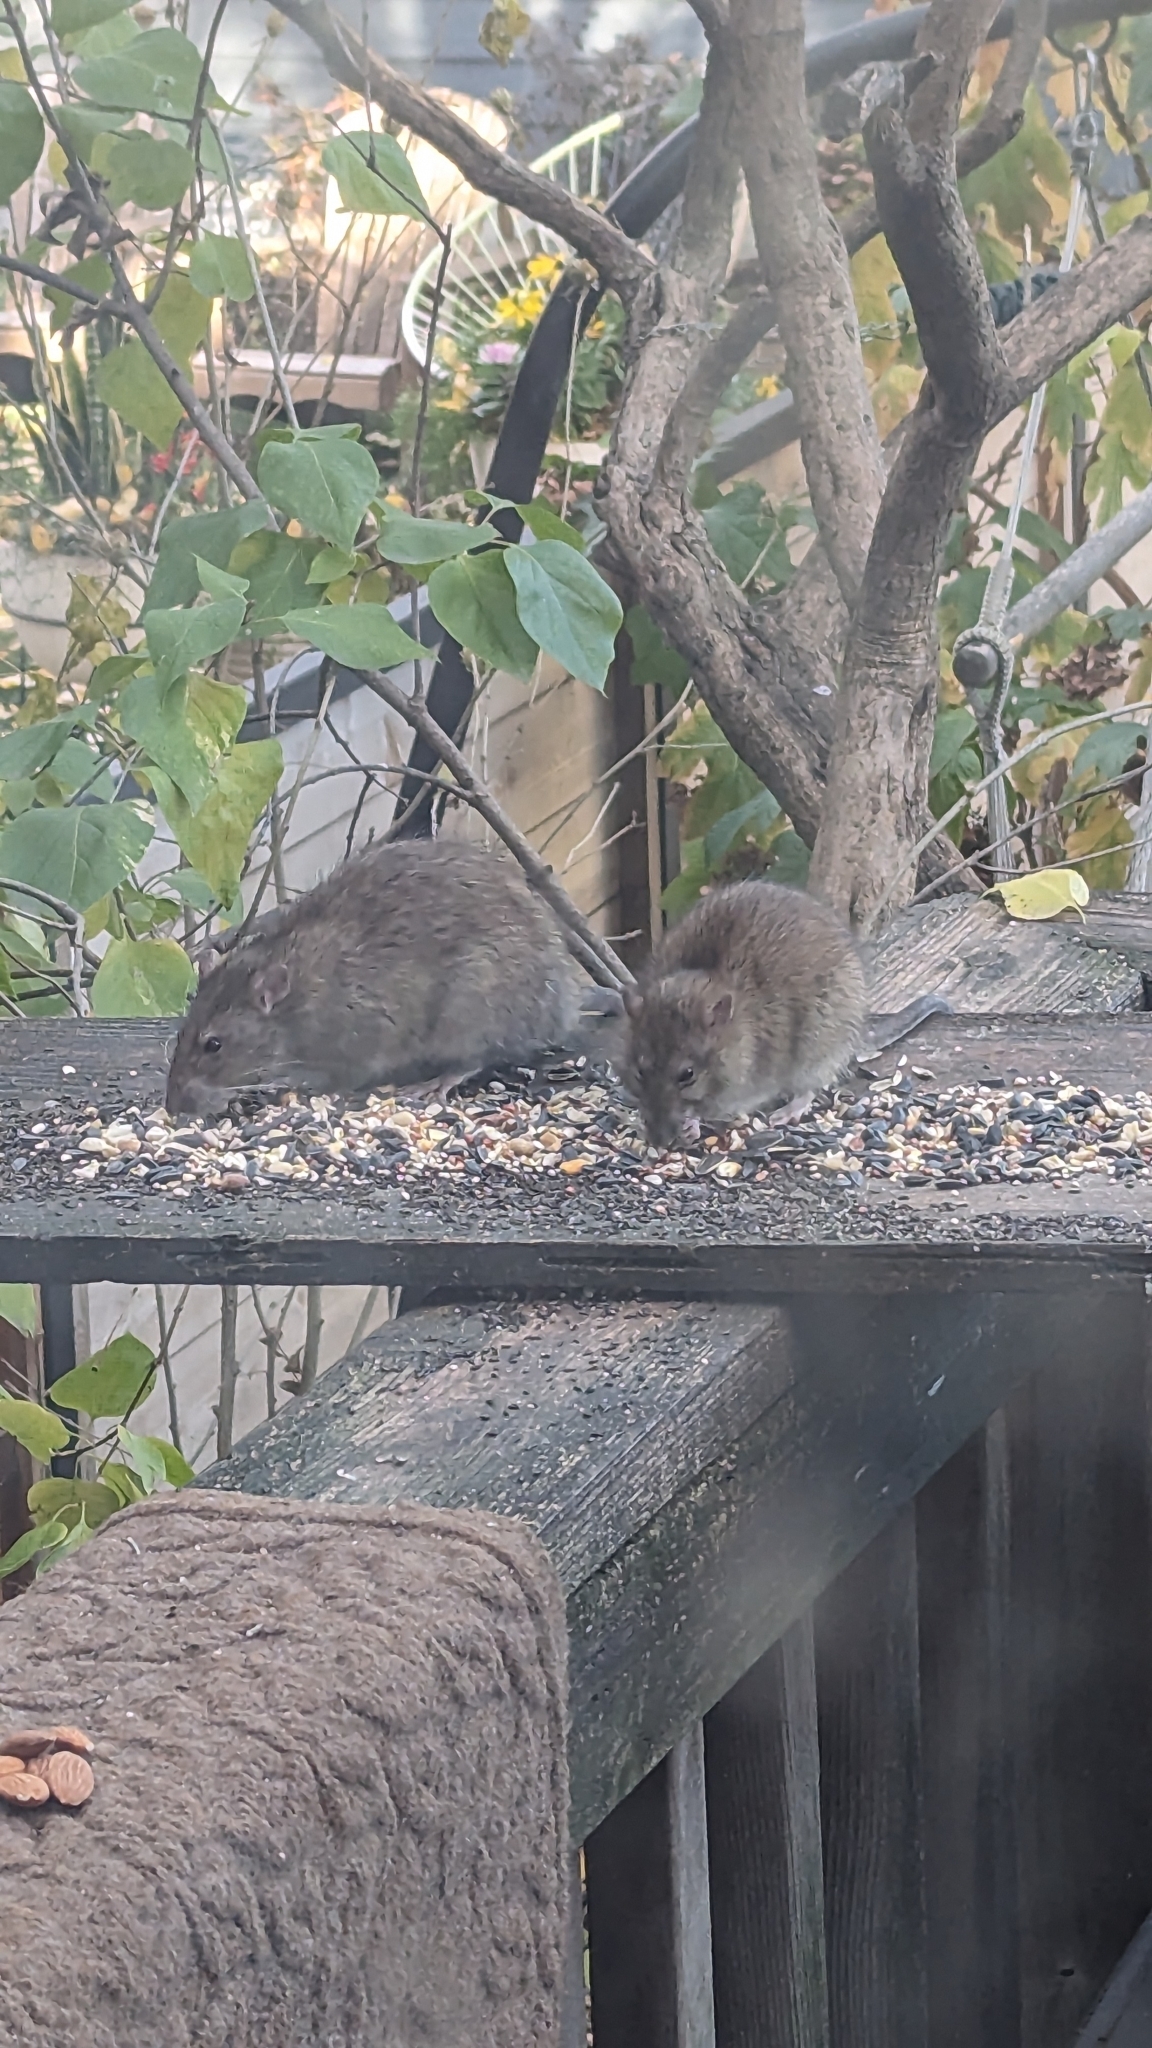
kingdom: Animalia
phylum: Chordata
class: Mammalia
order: Rodentia
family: Muridae
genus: Rattus
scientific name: Rattus norvegicus
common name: Brown rat
